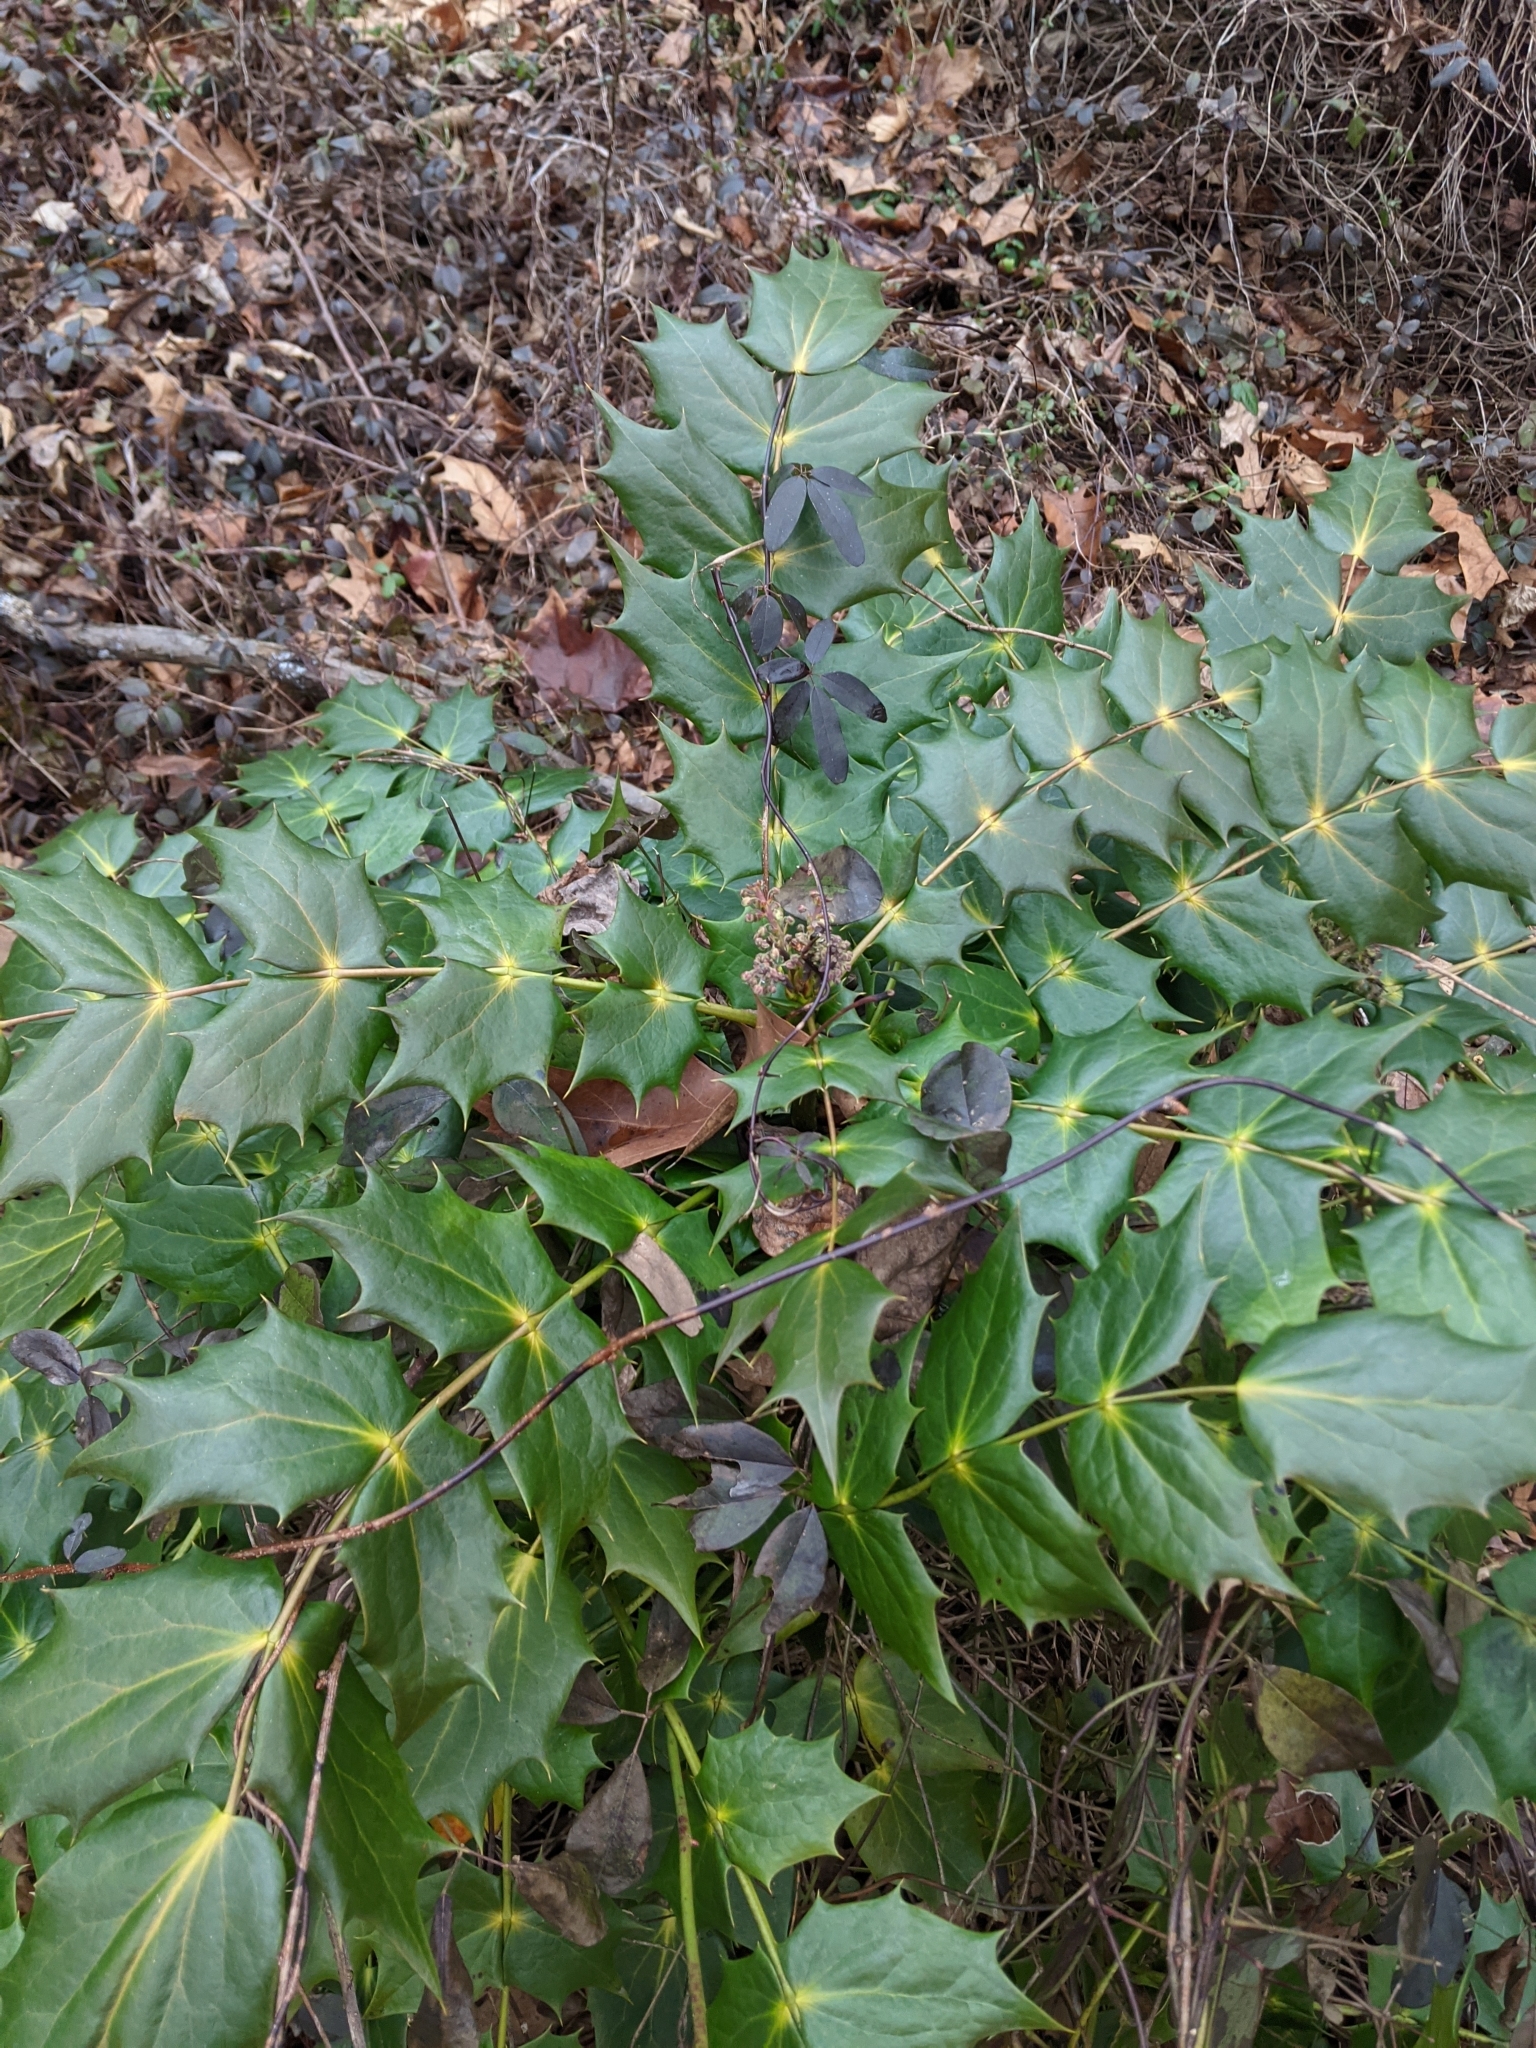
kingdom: Plantae
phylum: Tracheophyta
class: Magnoliopsida
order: Ranunculales
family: Berberidaceae
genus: Mahonia
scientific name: Mahonia bealei
